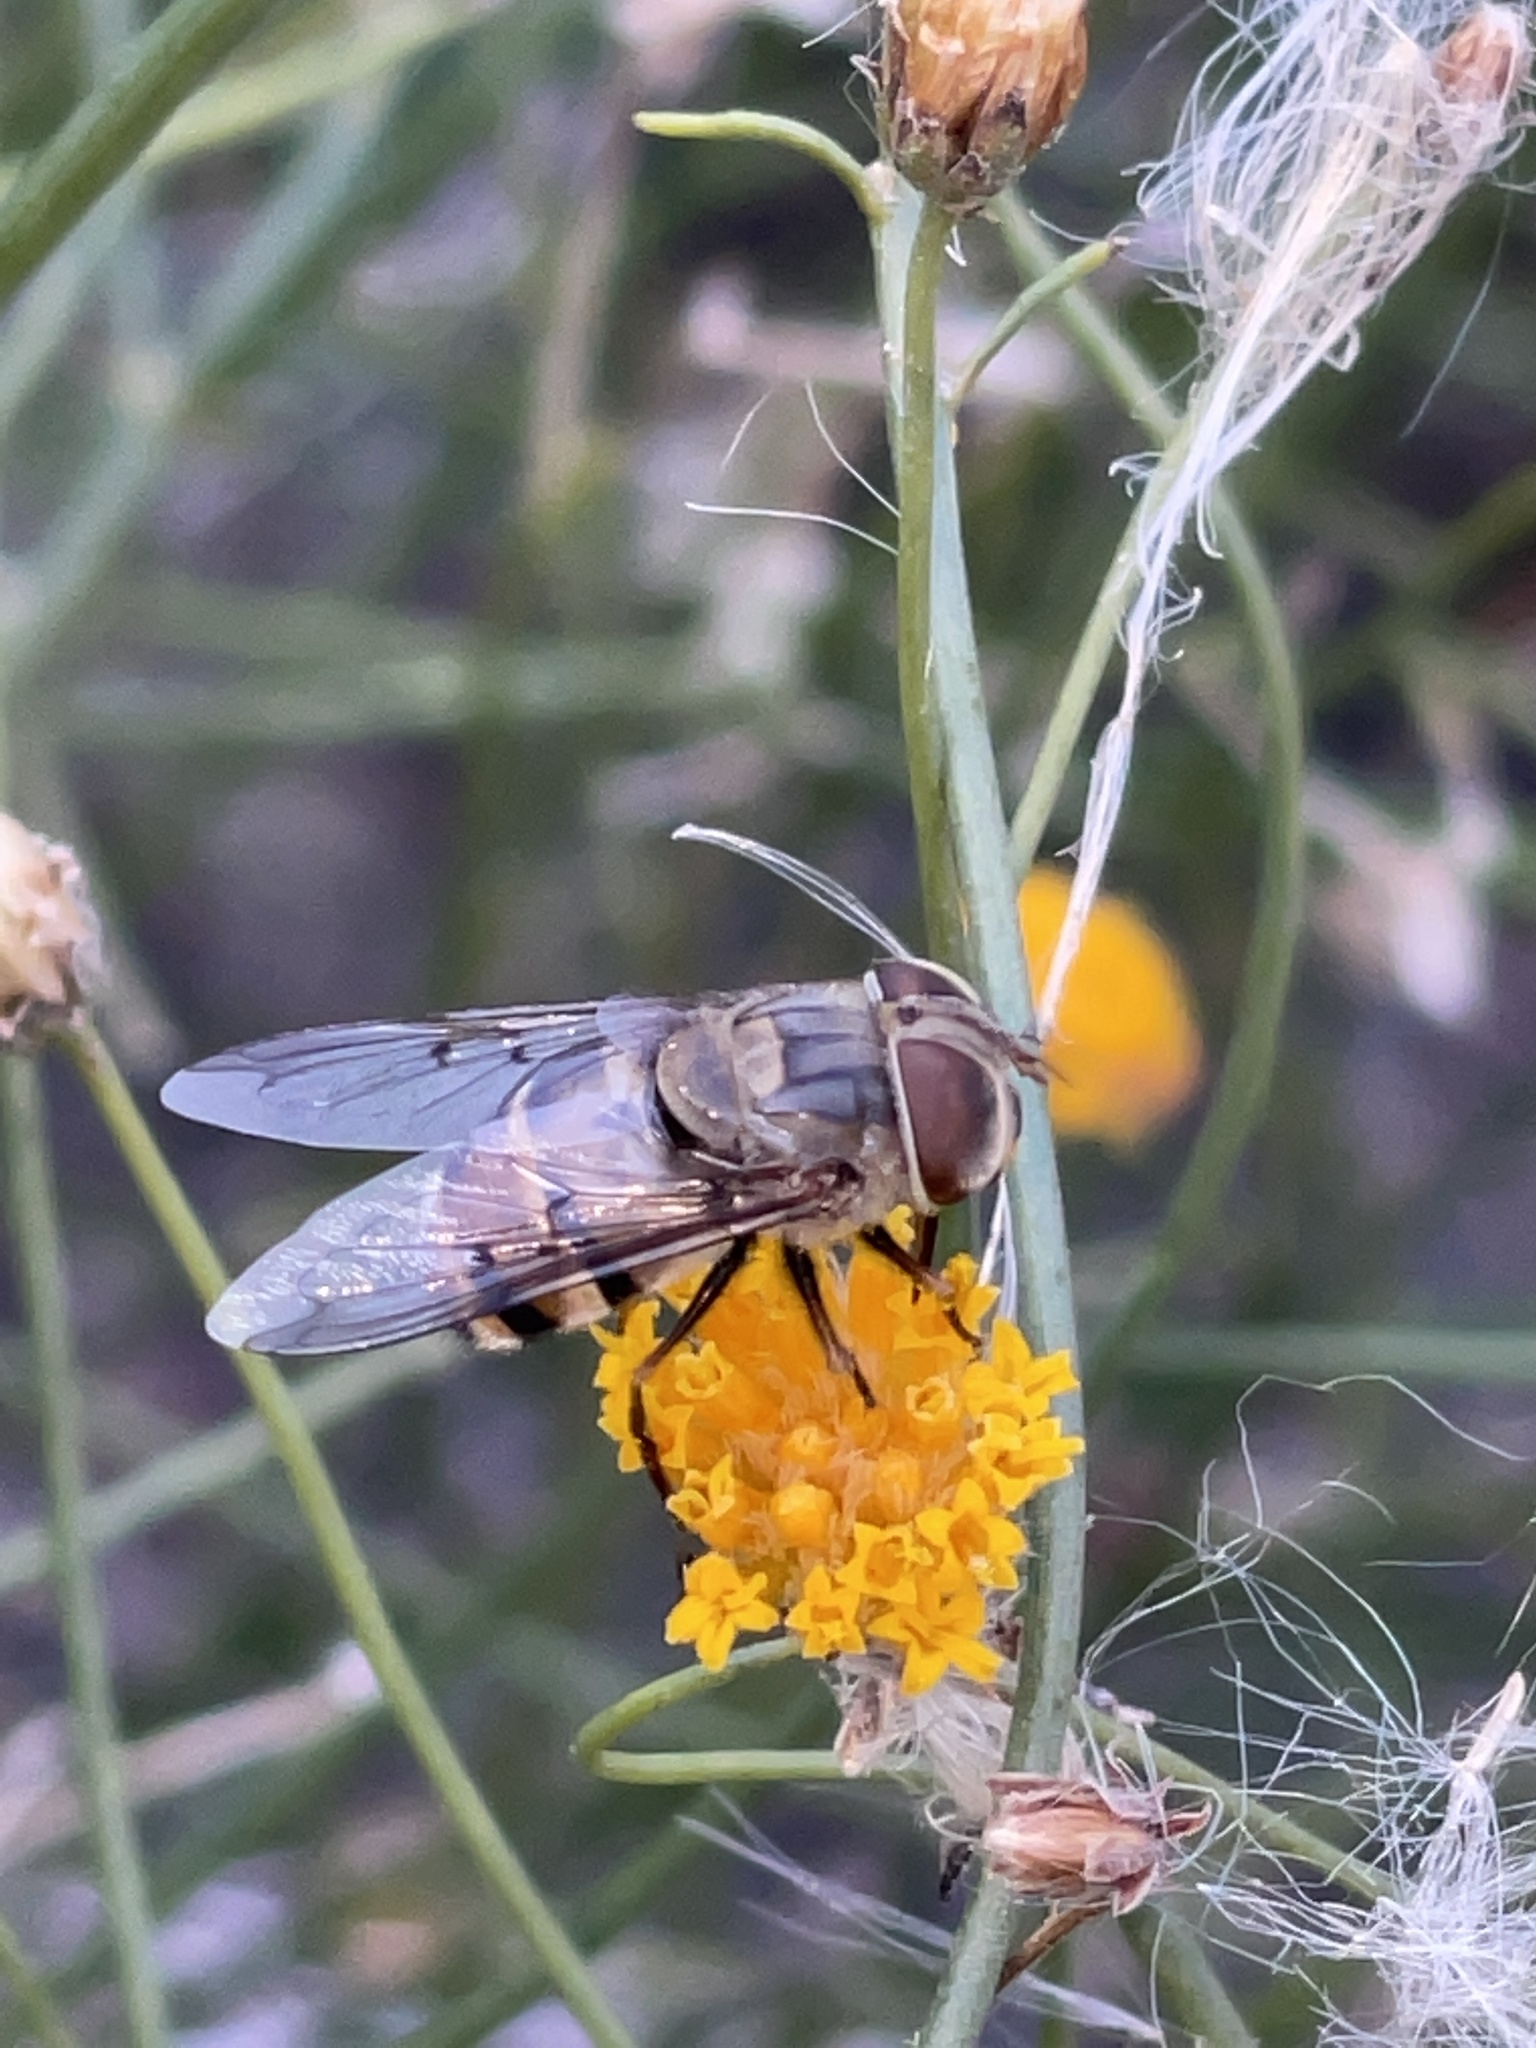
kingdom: Animalia
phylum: Arthropoda
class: Insecta
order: Diptera
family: Syrphidae
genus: Copestylum
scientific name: Copestylum isabellina
